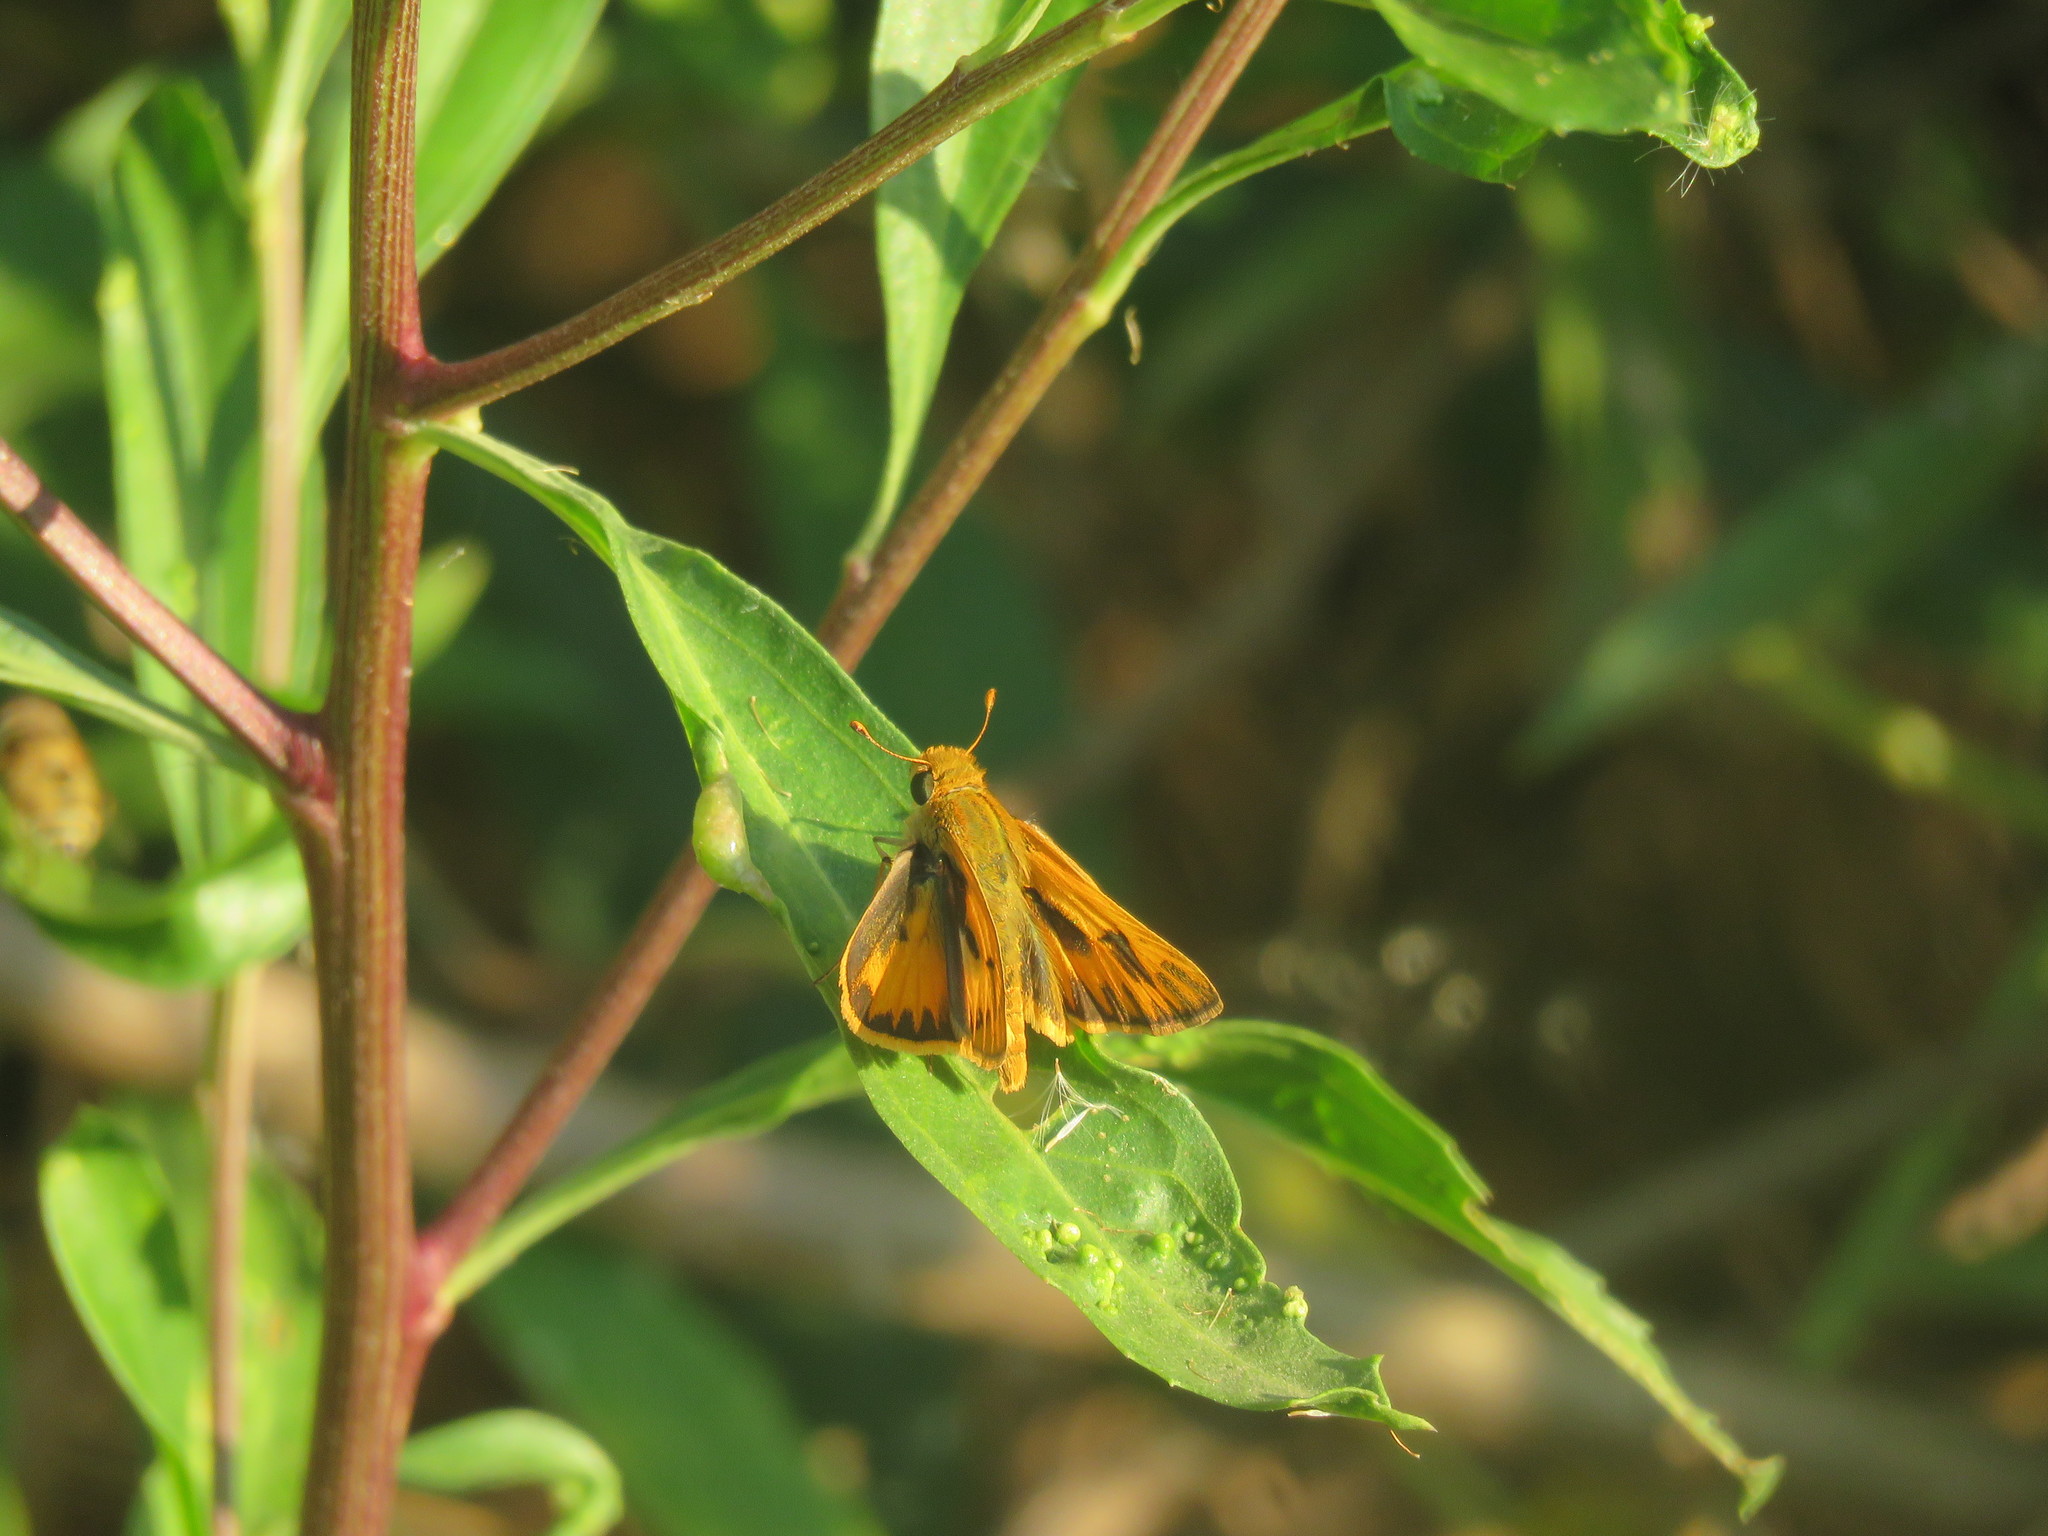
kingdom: Animalia
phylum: Arthropoda
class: Insecta
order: Lepidoptera
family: Hesperiidae
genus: Hylephila
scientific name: Hylephila phyleus
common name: Fiery skipper
